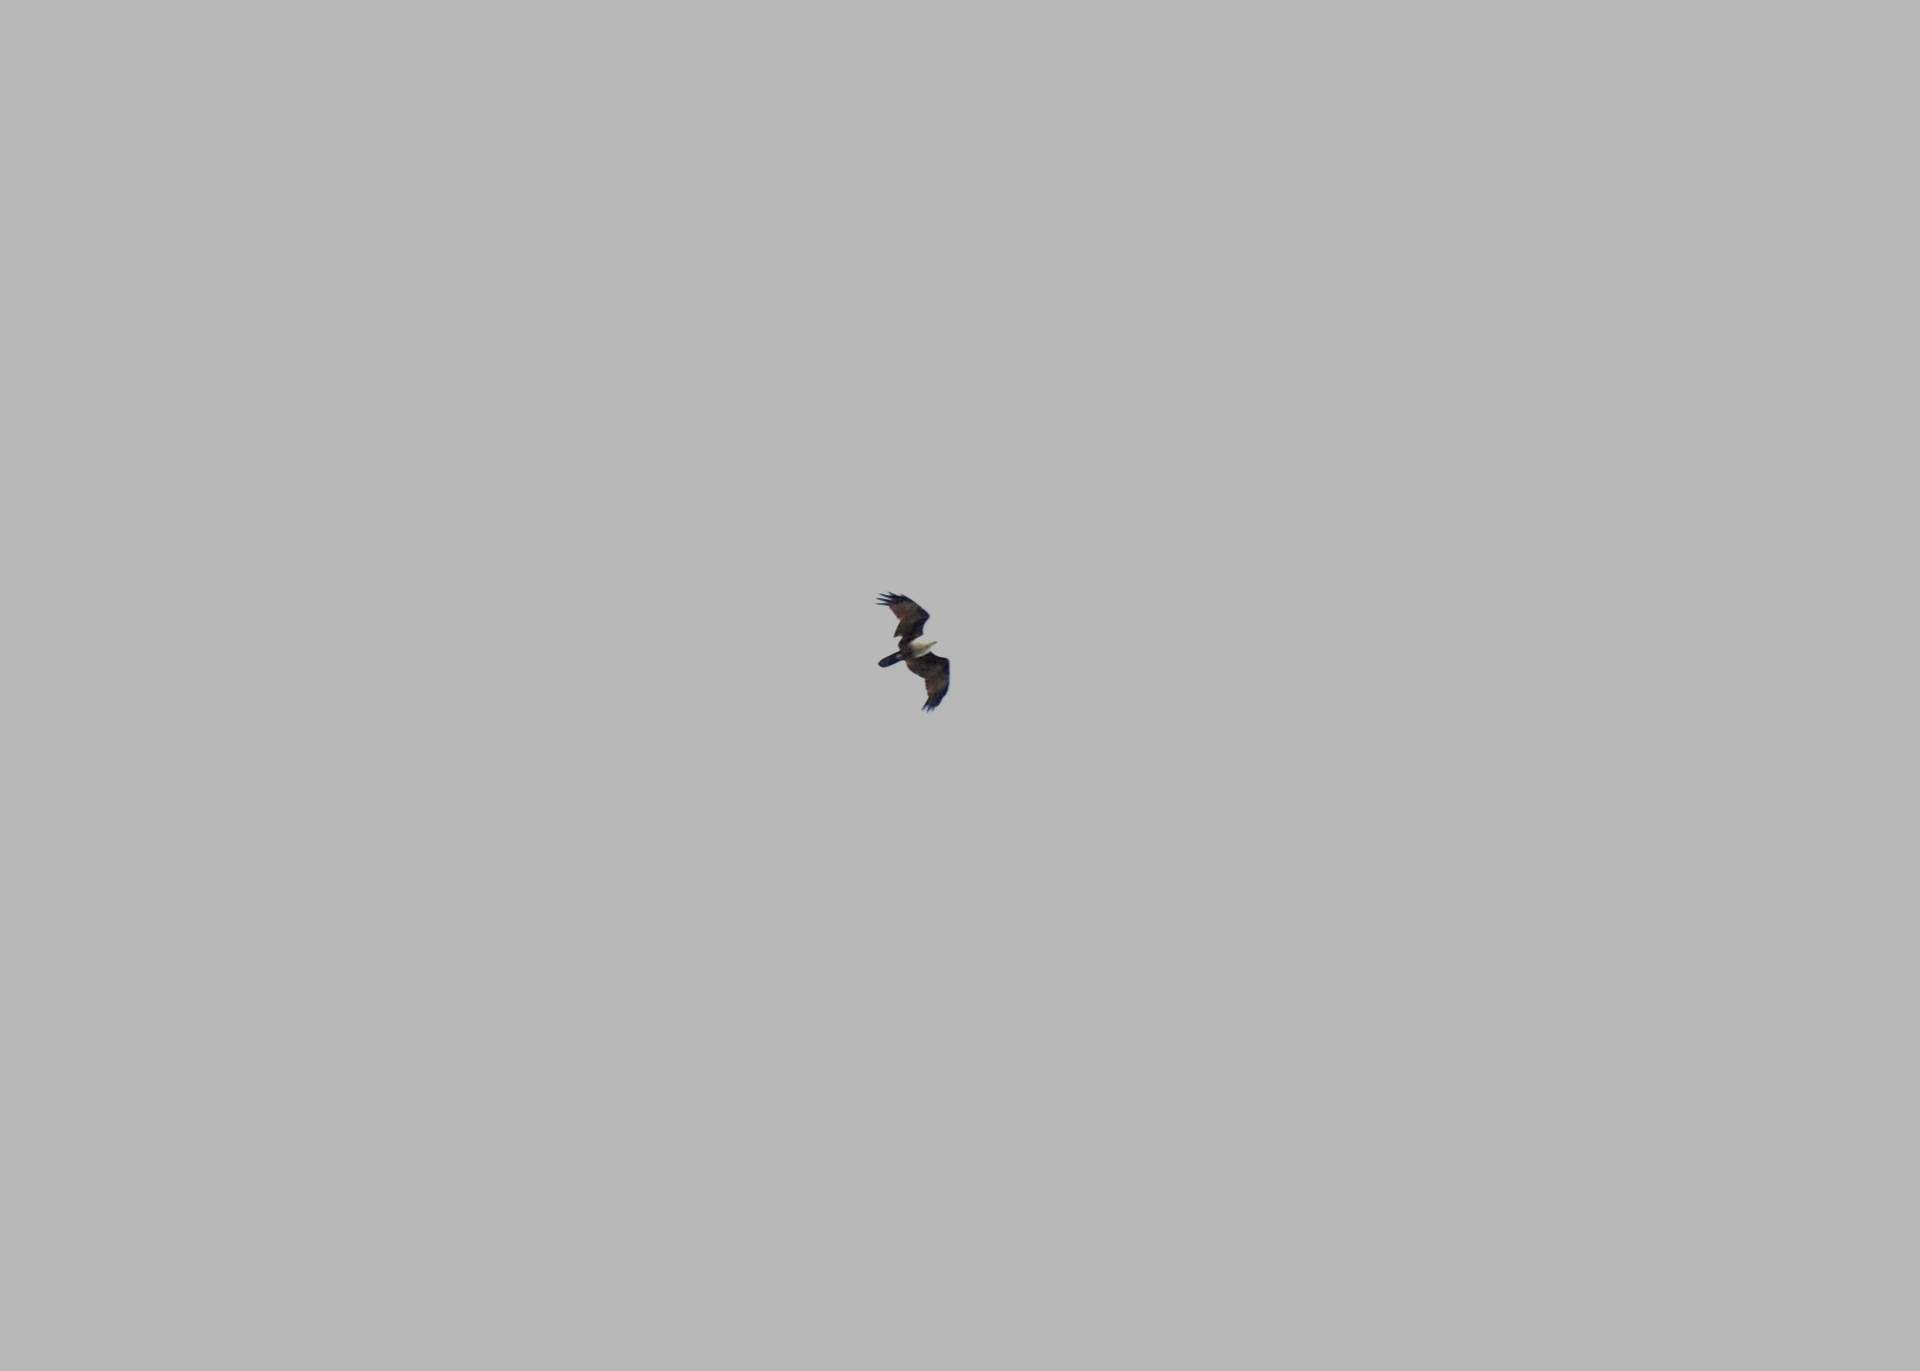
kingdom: Animalia
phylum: Chordata
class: Aves
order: Accipitriformes
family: Accipitridae
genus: Haliastur
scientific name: Haliastur indus
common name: Brahminy kite
